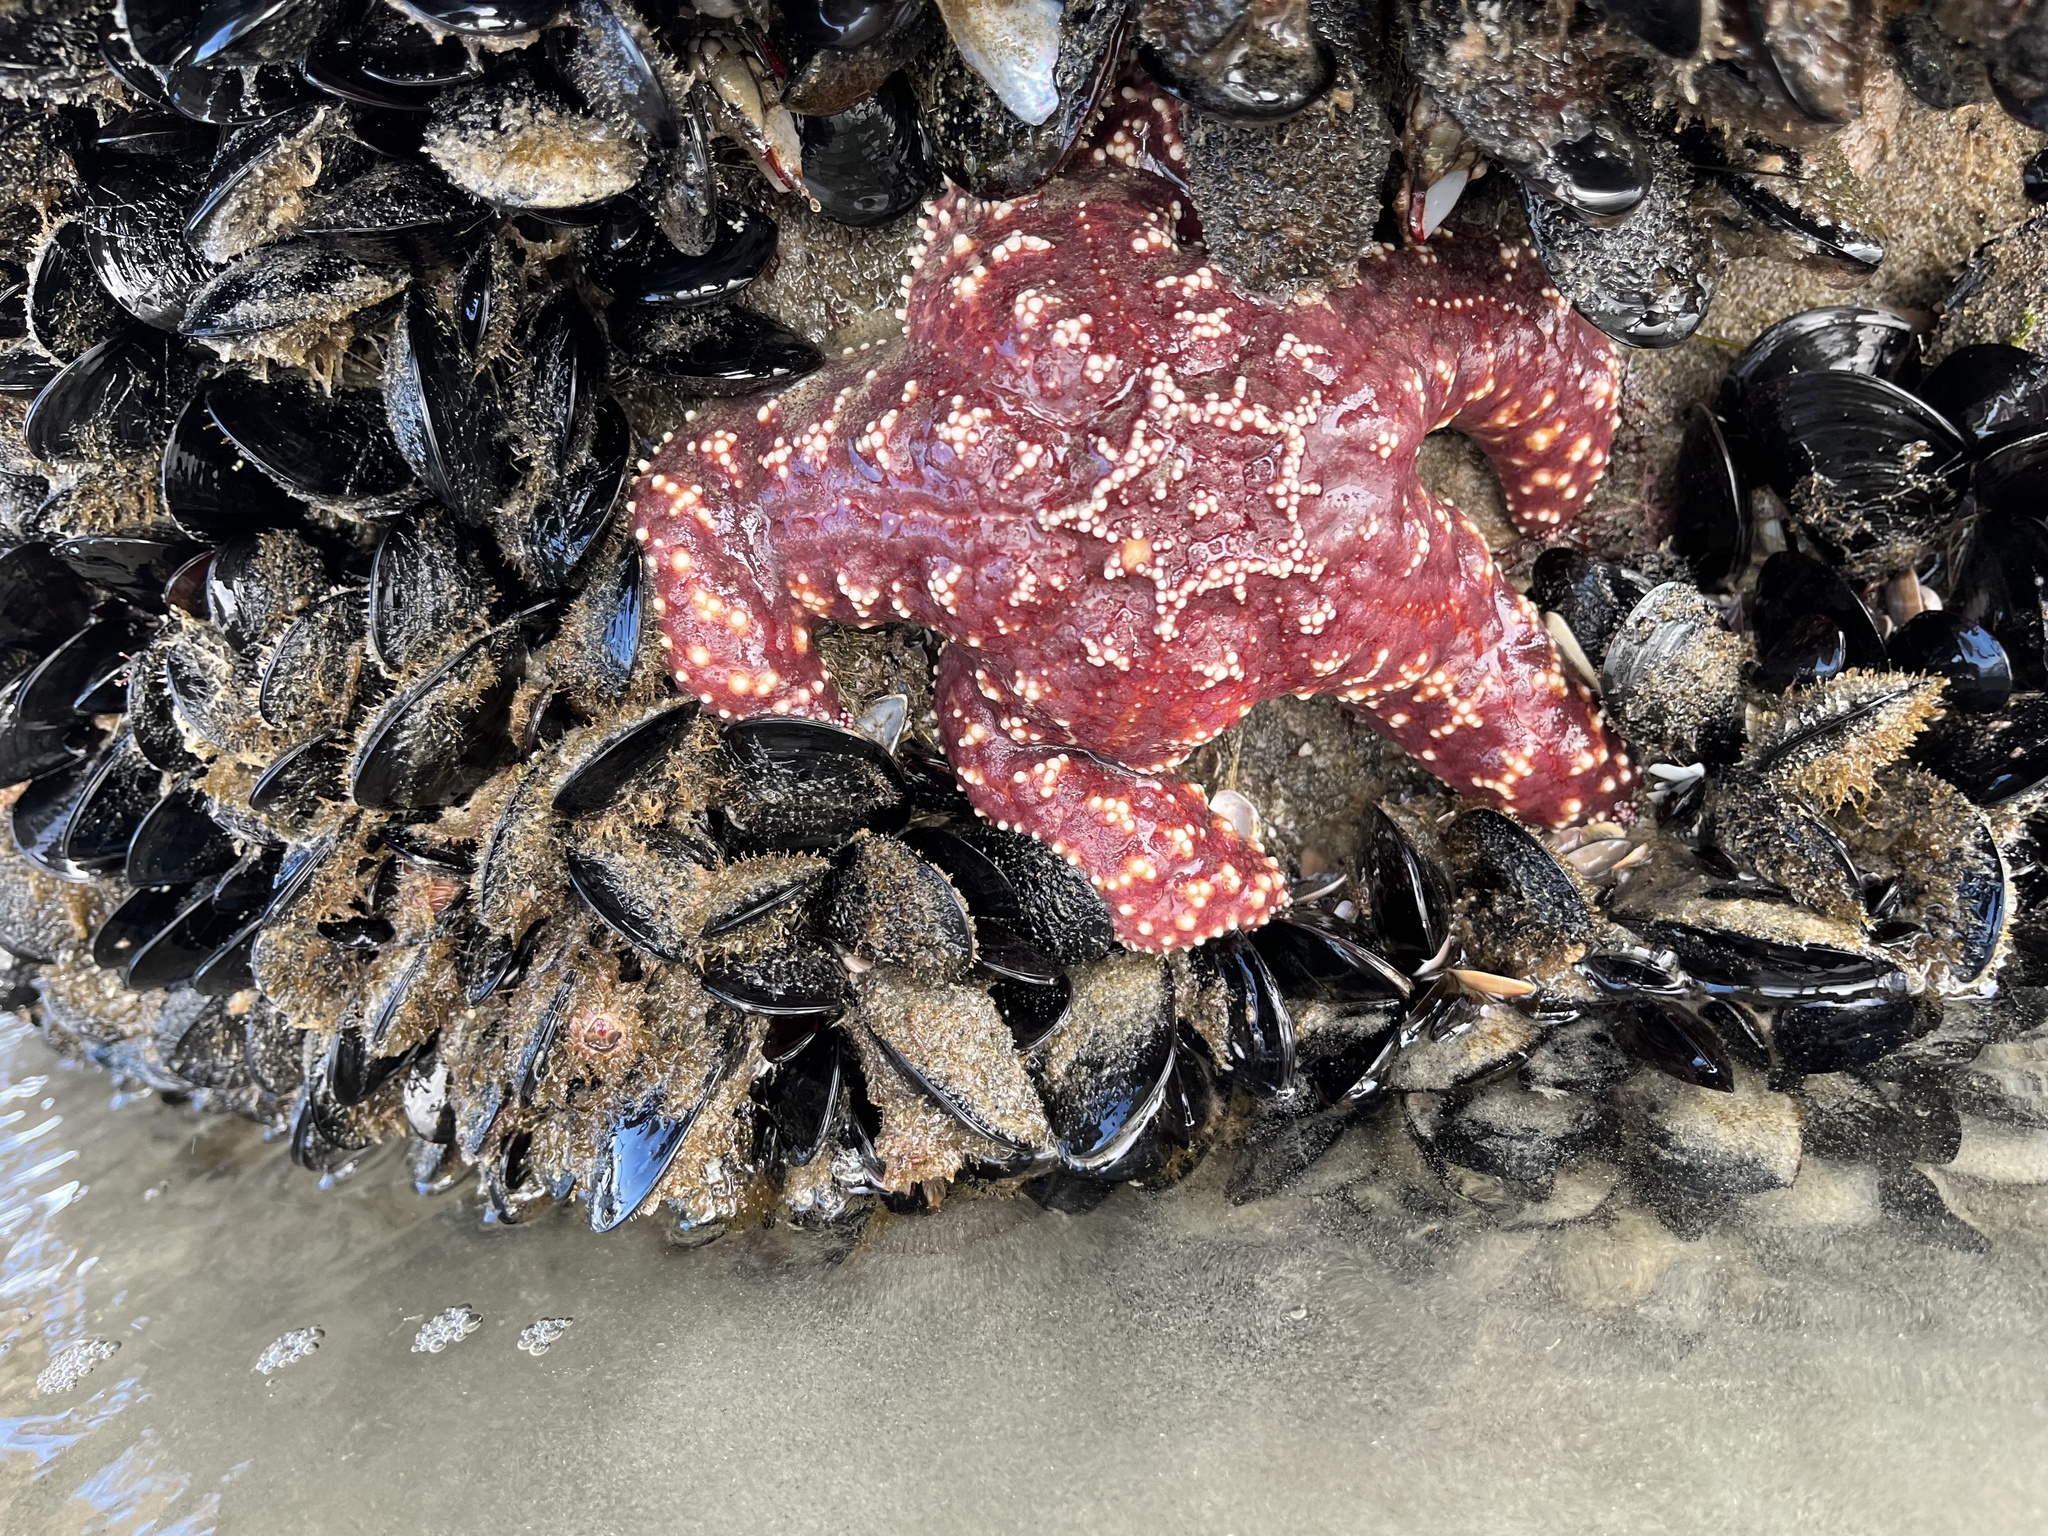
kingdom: Animalia
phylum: Echinodermata
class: Asteroidea
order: Forcipulatida
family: Asteriidae
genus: Pisaster
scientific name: Pisaster ochraceus
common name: Ochre stars
